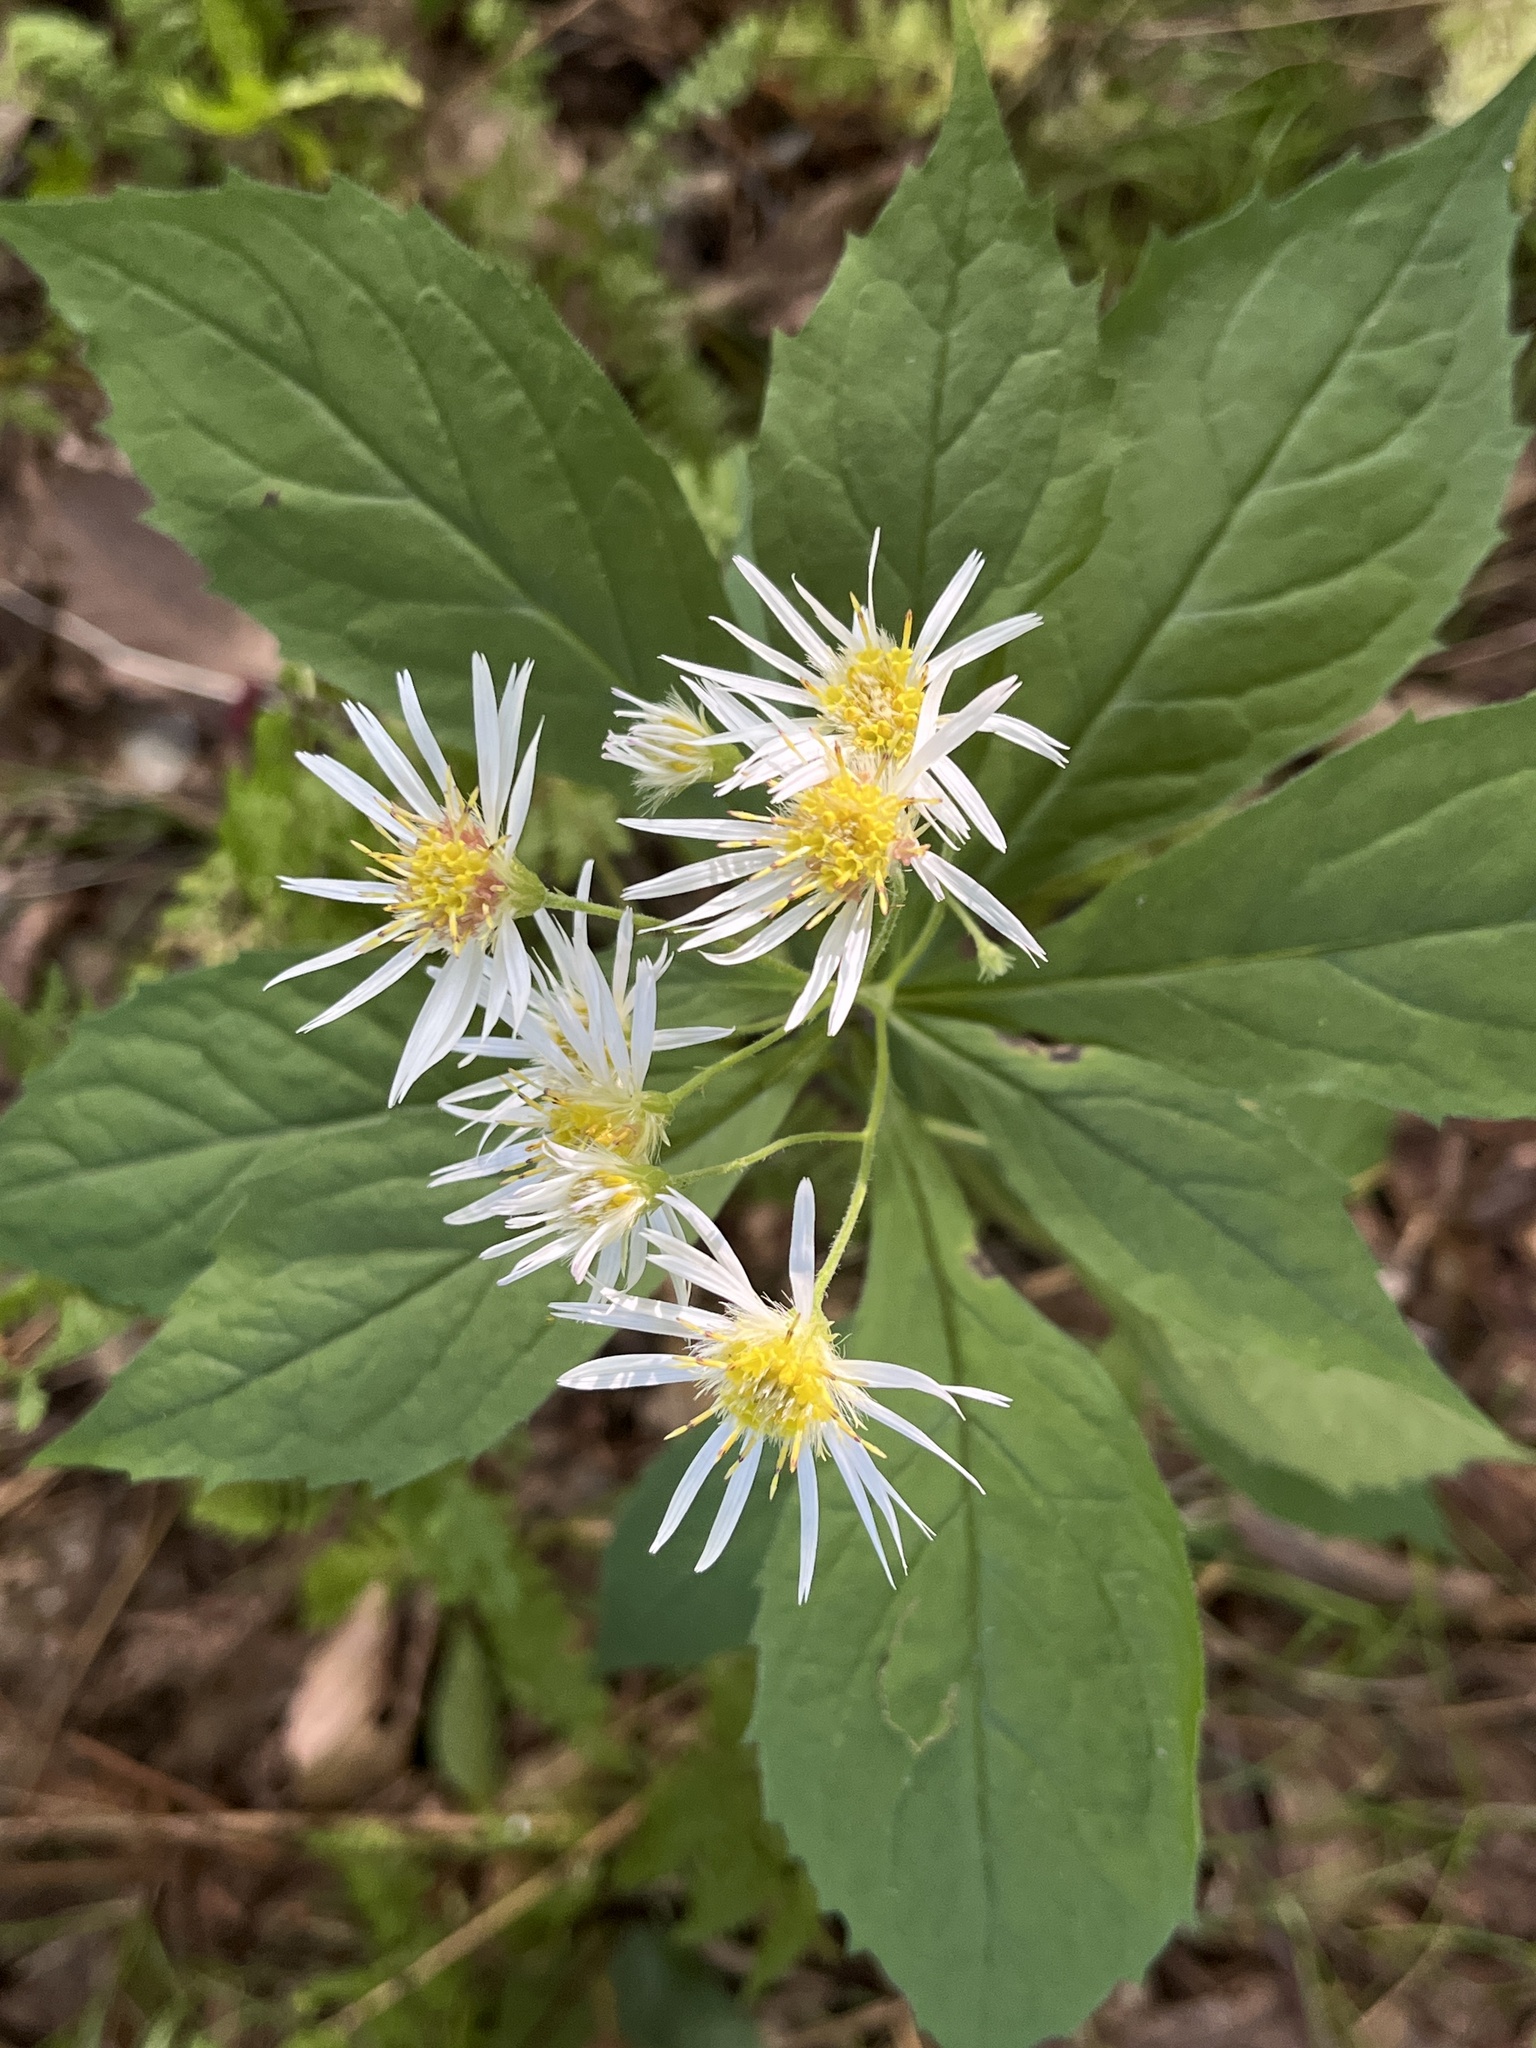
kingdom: Plantae
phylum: Tracheophyta
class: Magnoliopsida
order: Asterales
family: Asteraceae
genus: Oclemena
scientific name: Oclemena acuminata
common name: Mountain aster
